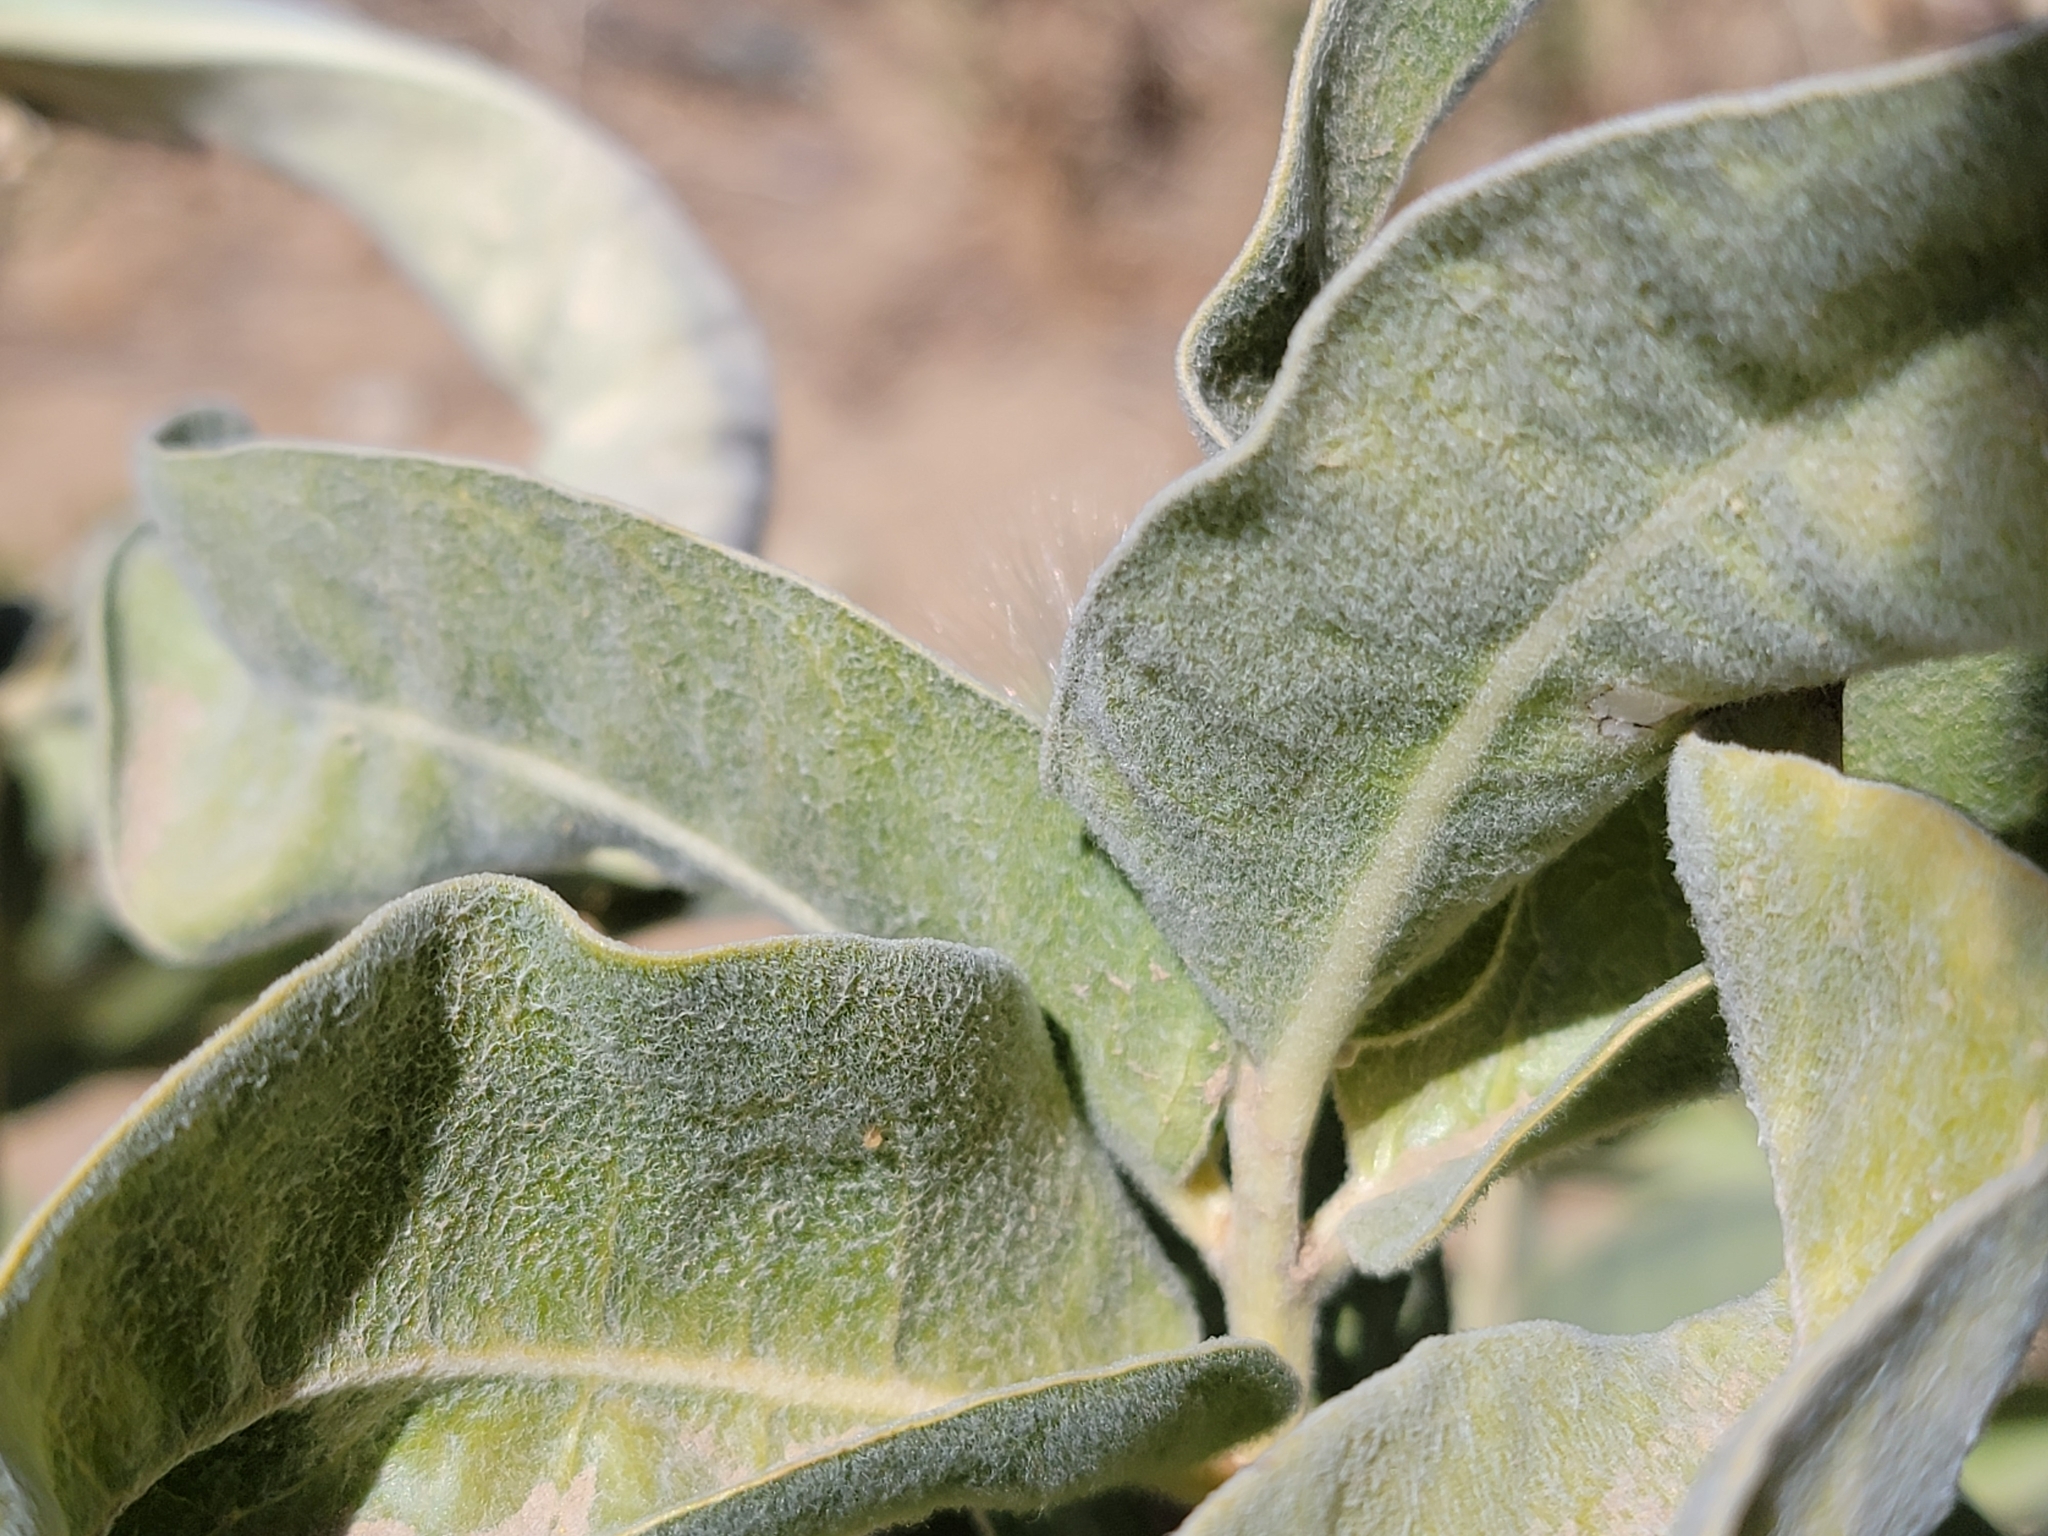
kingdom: Plantae
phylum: Tracheophyta
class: Magnoliopsida
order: Gentianales
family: Apocynaceae
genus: Asclepias
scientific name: Asclepias eriocarpa
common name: Indian milkweed
